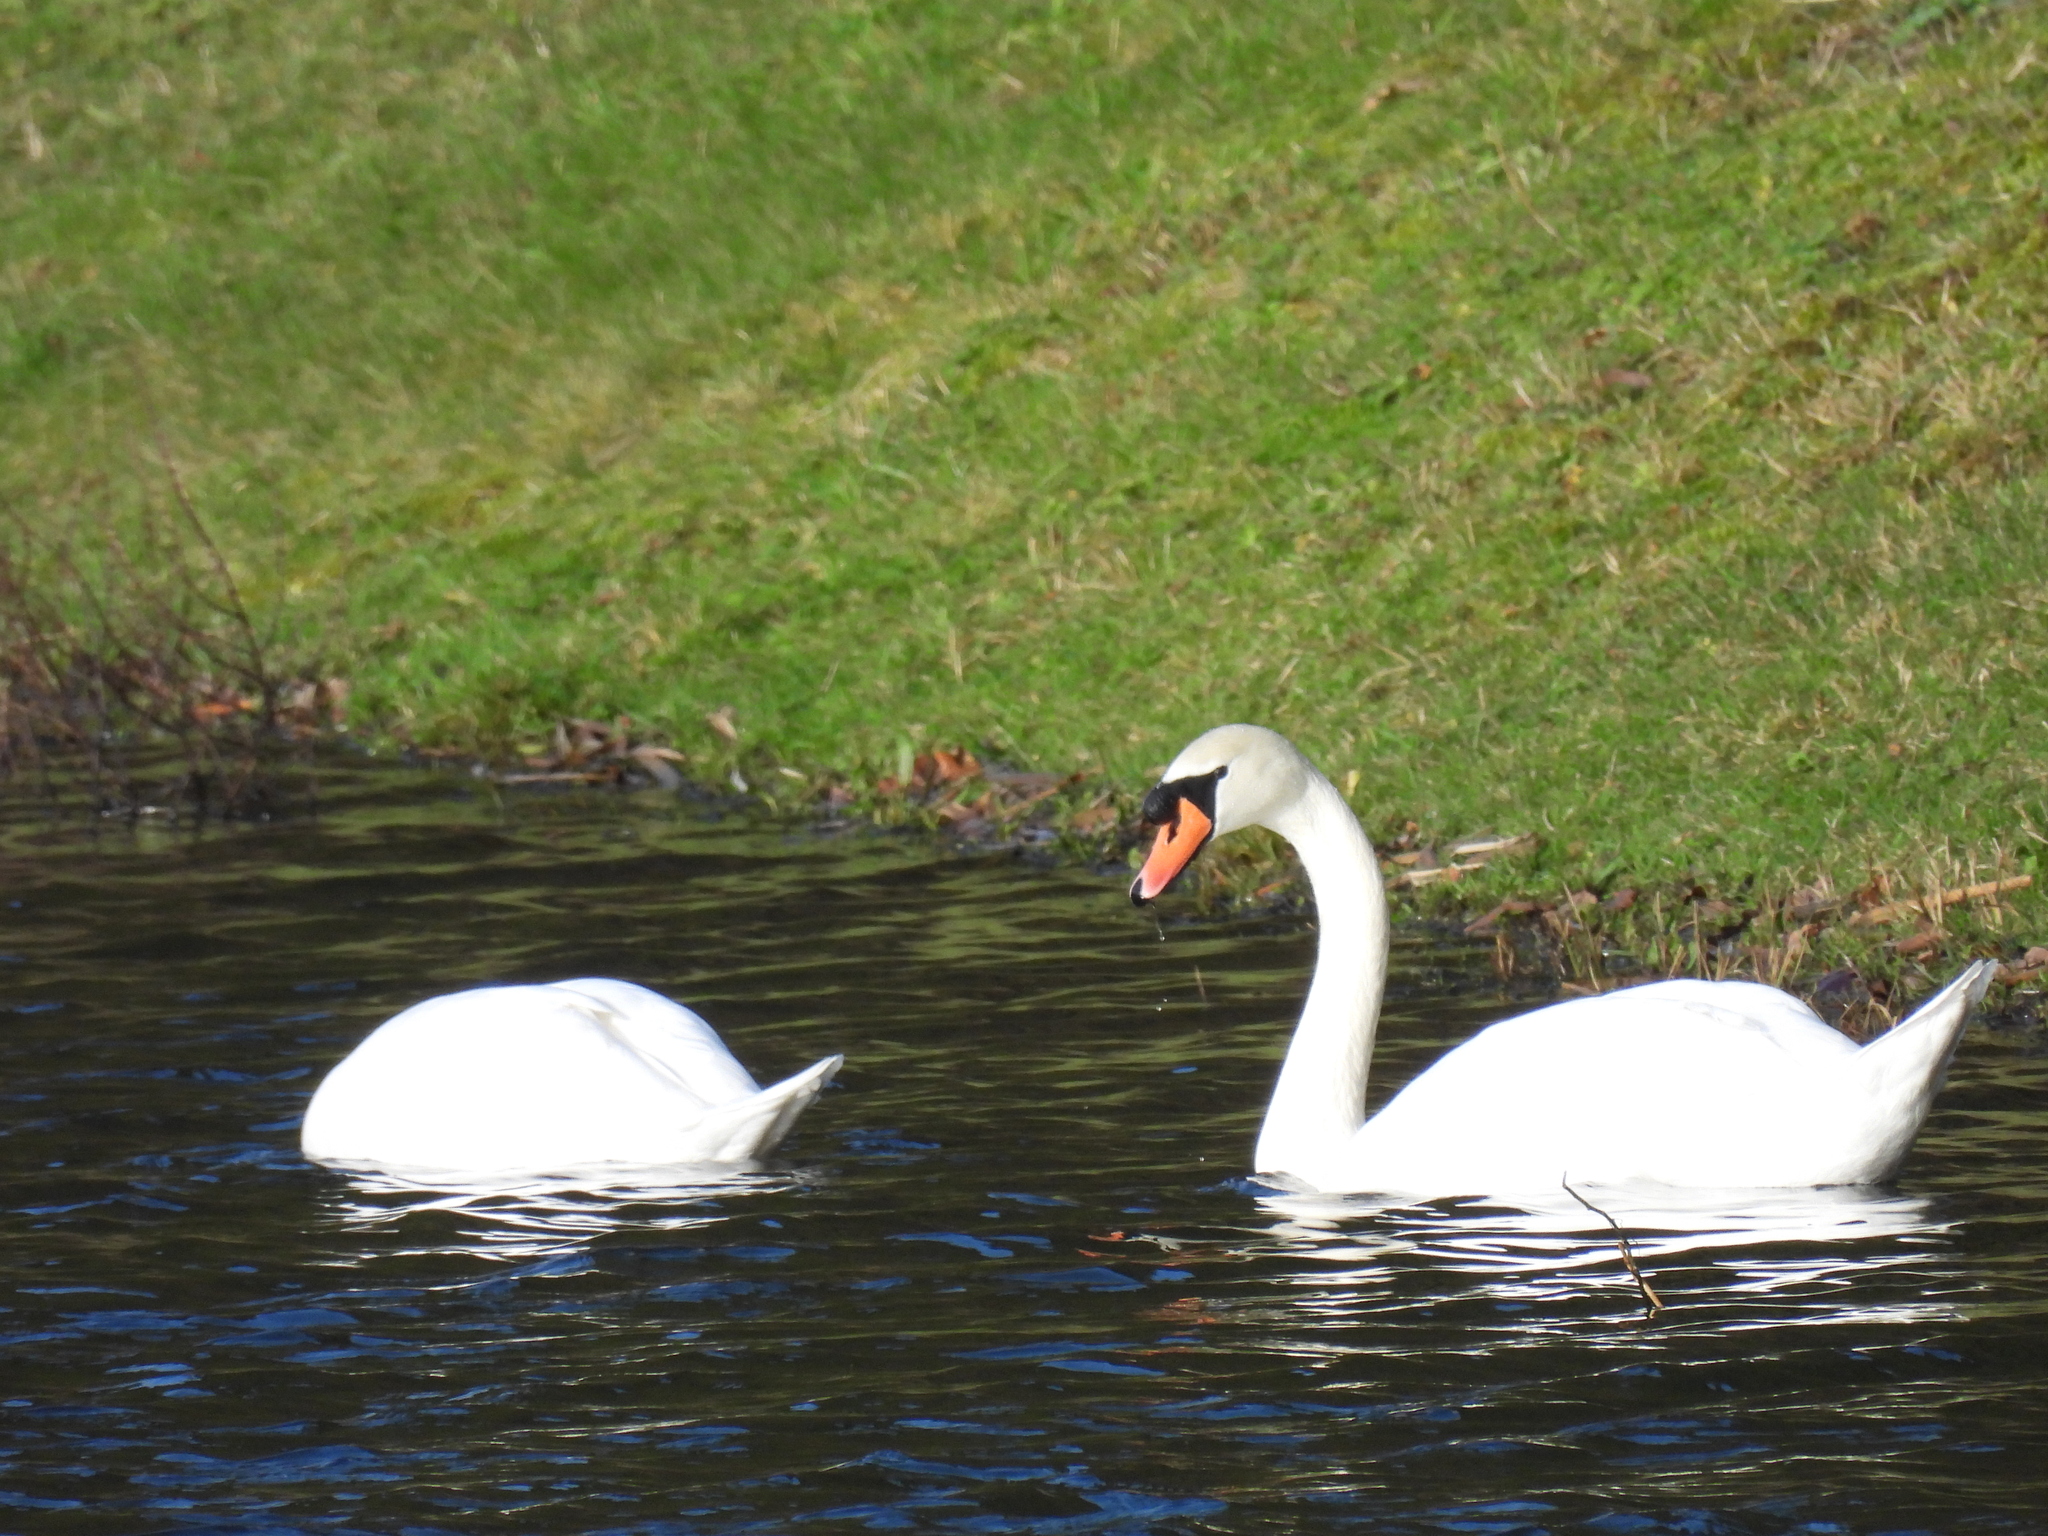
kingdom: Animalia
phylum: Chordata
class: Aves
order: Anseriformes
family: Anatidae
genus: Cygnus
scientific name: Cygnus olor
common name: Mute swan
